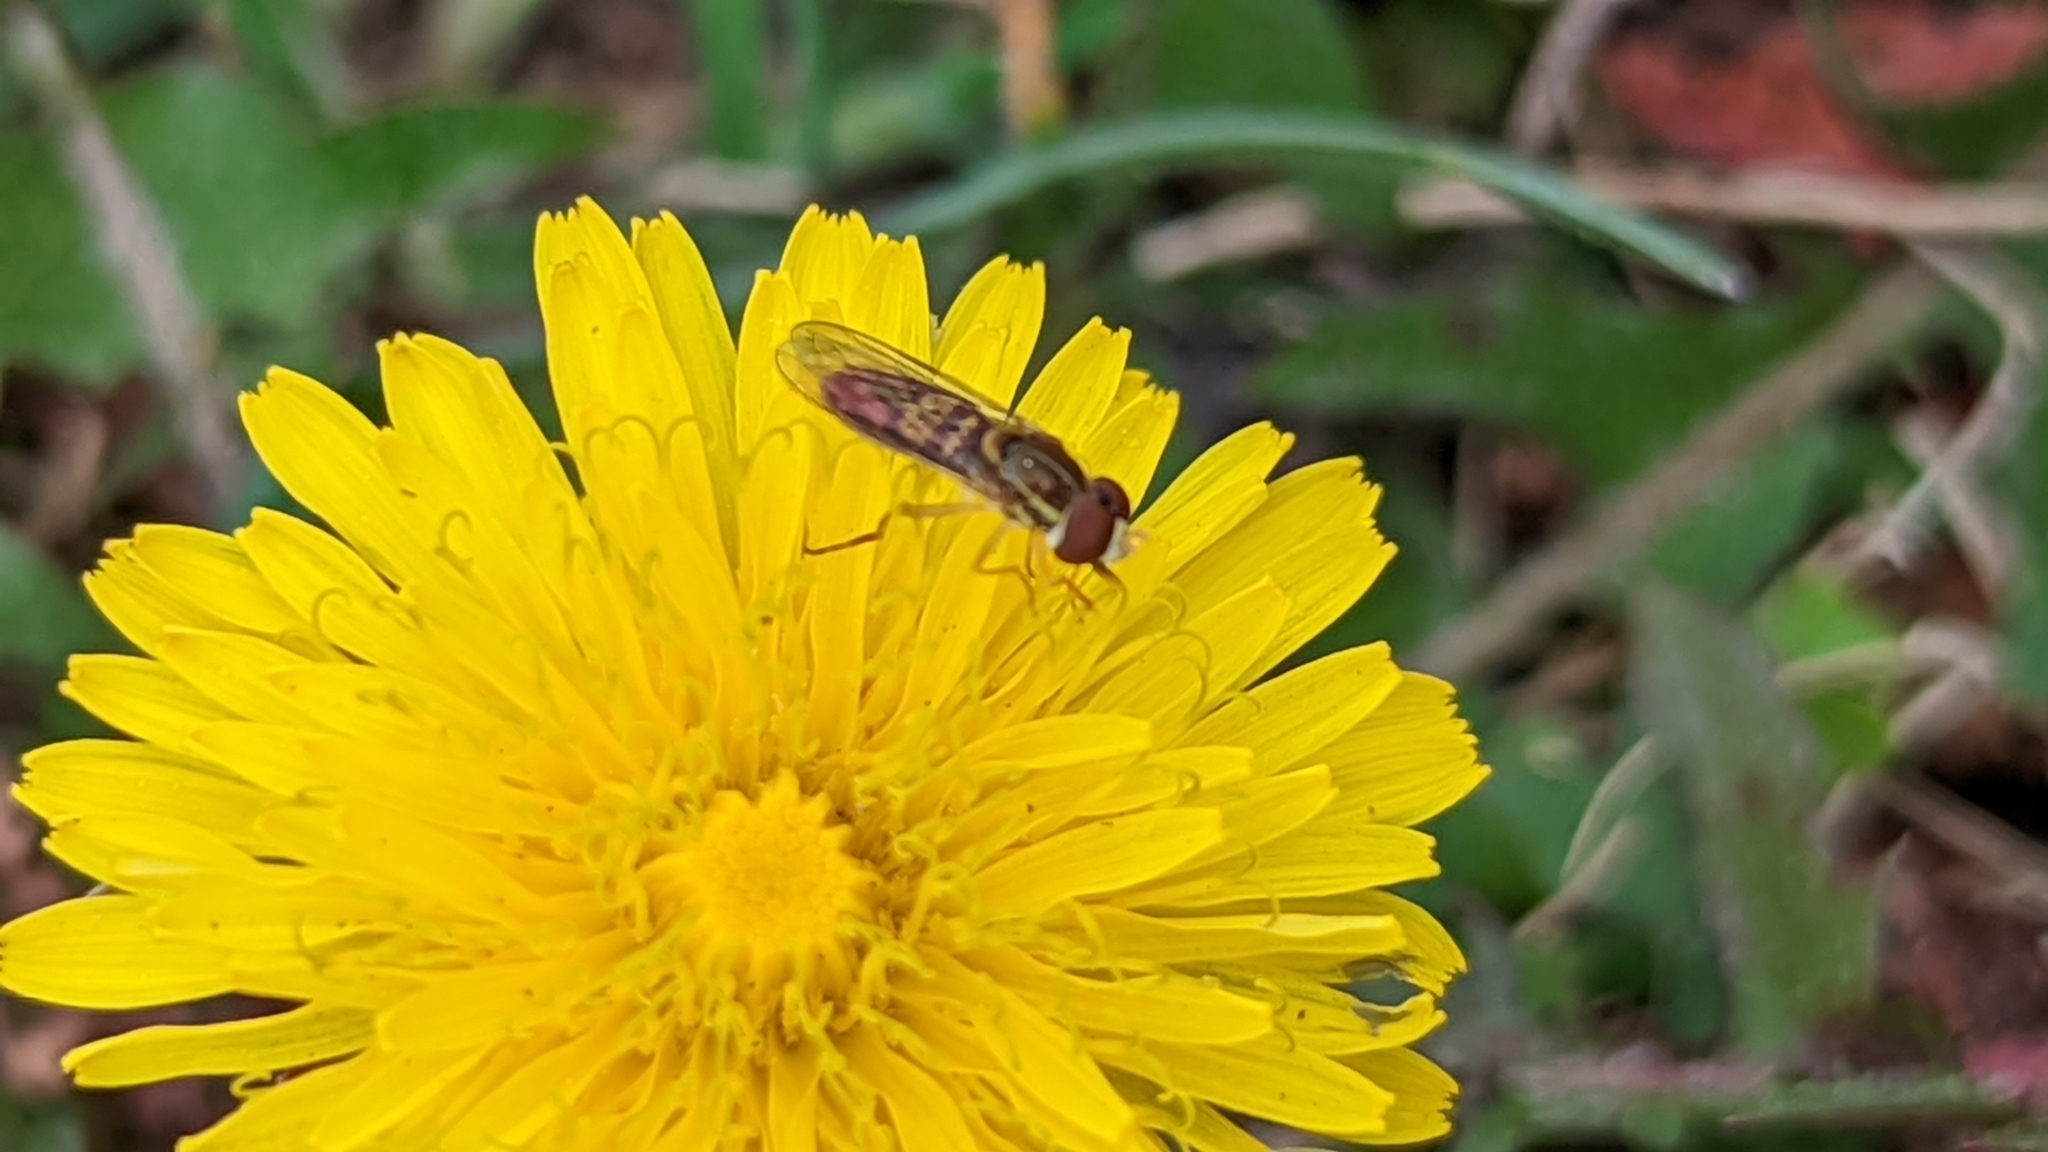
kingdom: Animalia
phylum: Arthropoda
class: Insecta
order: Diptera
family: Syrphidae
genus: Toxomerus
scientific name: Toxomerus marginatus
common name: Syrphid fly
